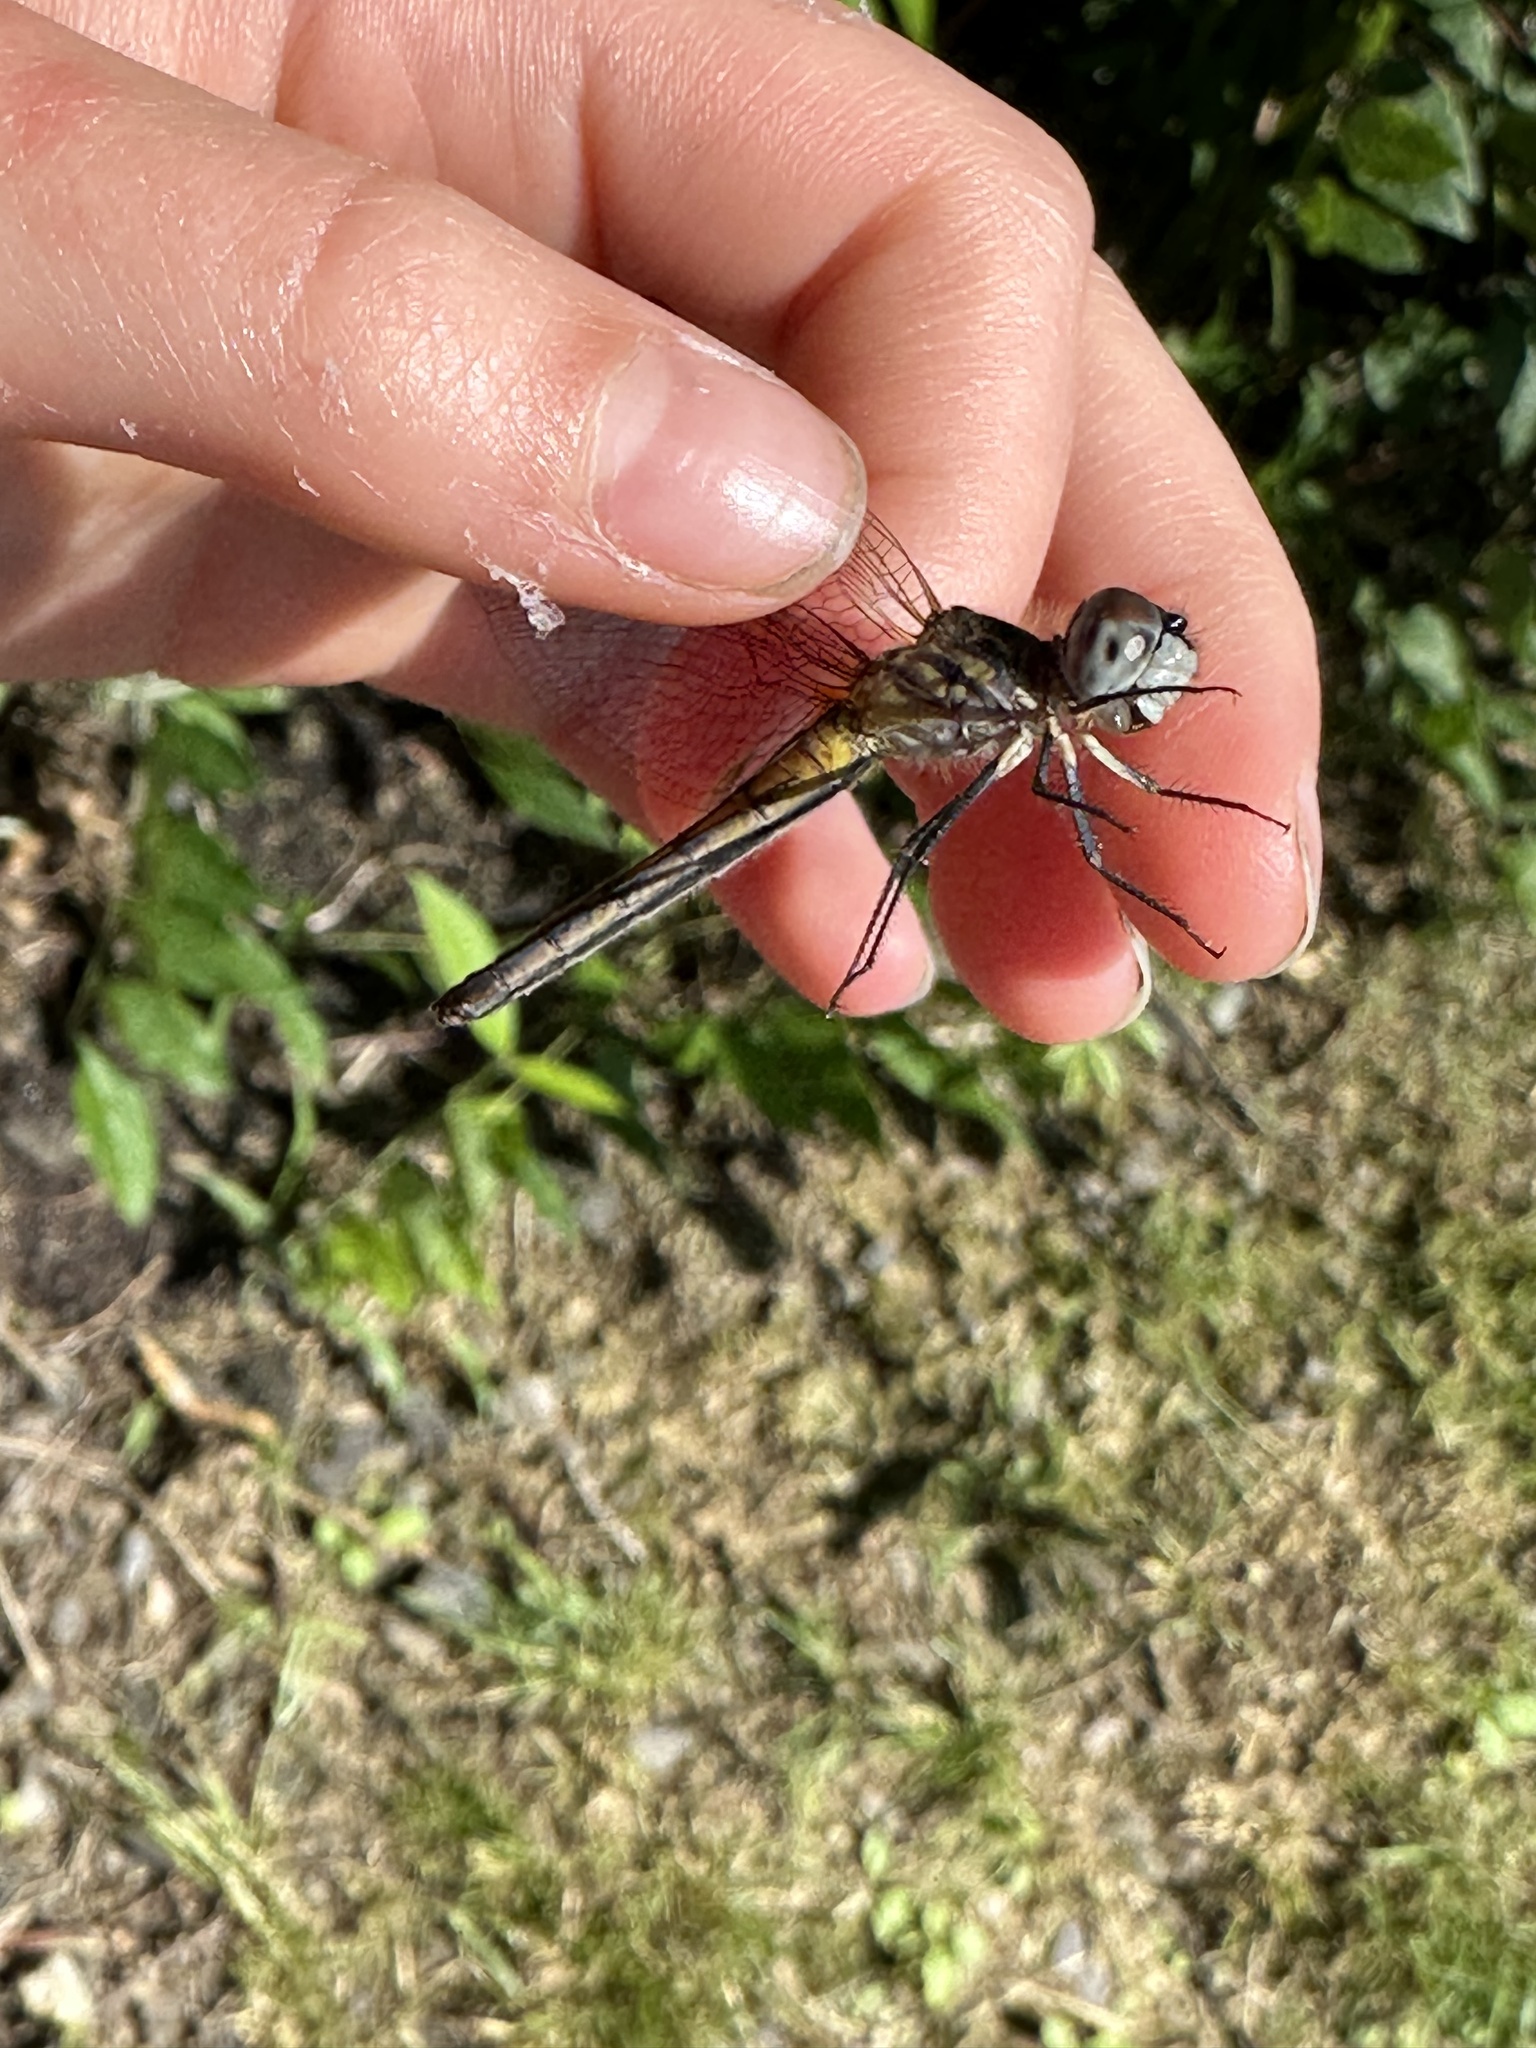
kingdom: Animalia
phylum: Arthropoda
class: Insecta
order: Odonata
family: Libellulidae
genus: Pachydiplax
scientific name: Pachydiplax longipennis
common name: Blue dasher
